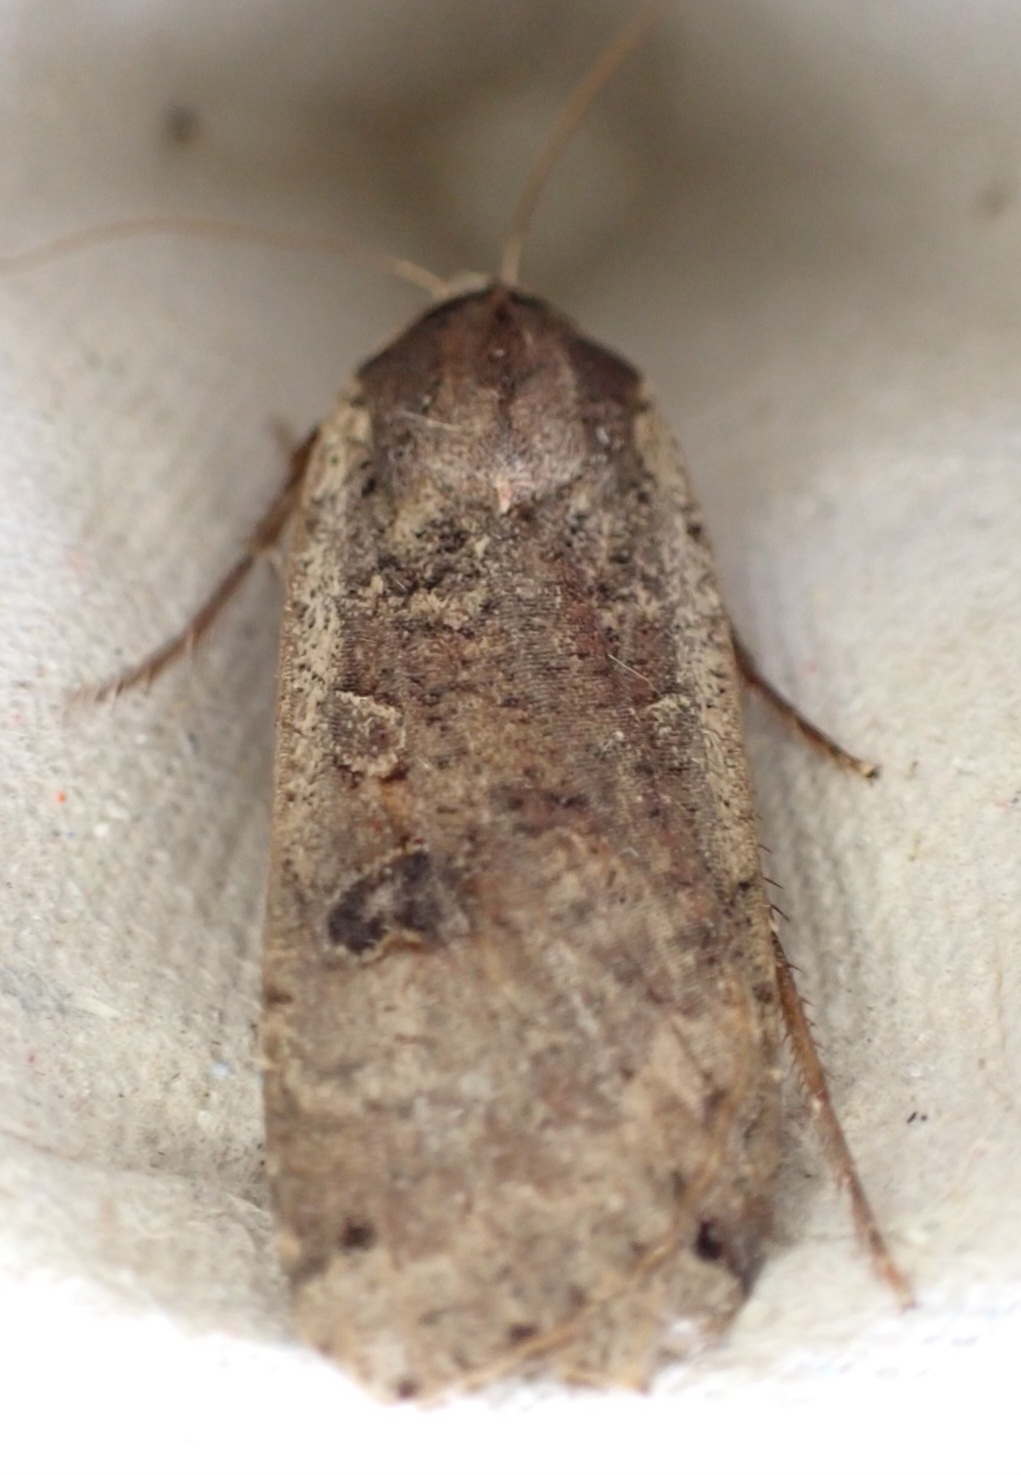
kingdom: Animalia
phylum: Arthropoda
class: Insecta
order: Lepidoptera
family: Noctuidae
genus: Noctua
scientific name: Noctua pronuba
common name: Large yellow underwing
